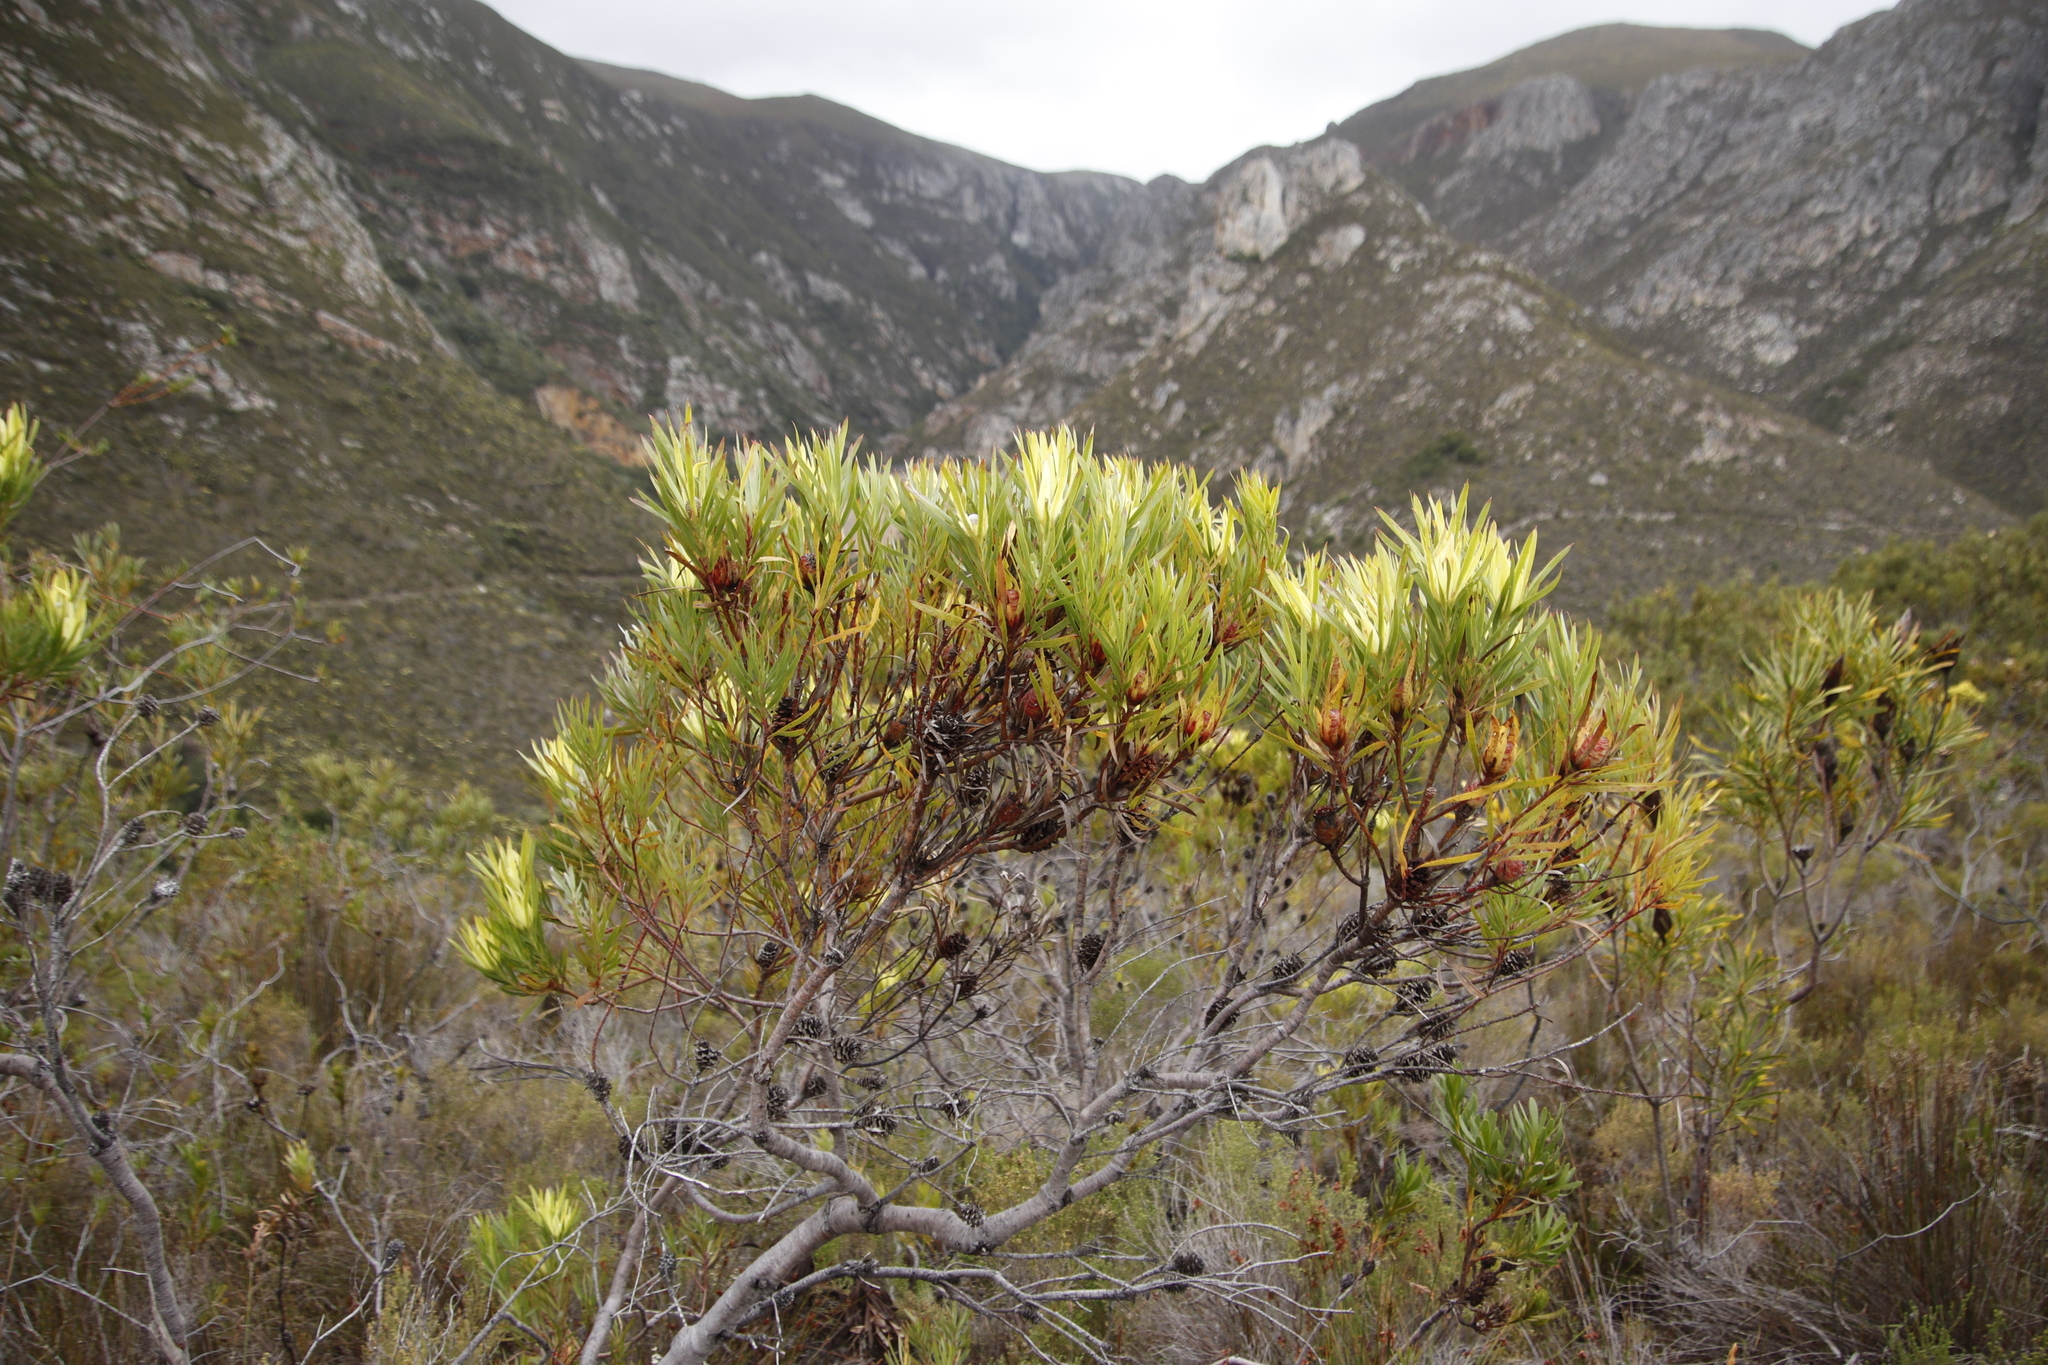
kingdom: Plantae
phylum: Tracheophyta
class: Magnoliopsida
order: Proteales
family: Proteaceae
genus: Leucadendron
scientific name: Leucadendron xanthoconus
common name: Sickle-leaf conebush
